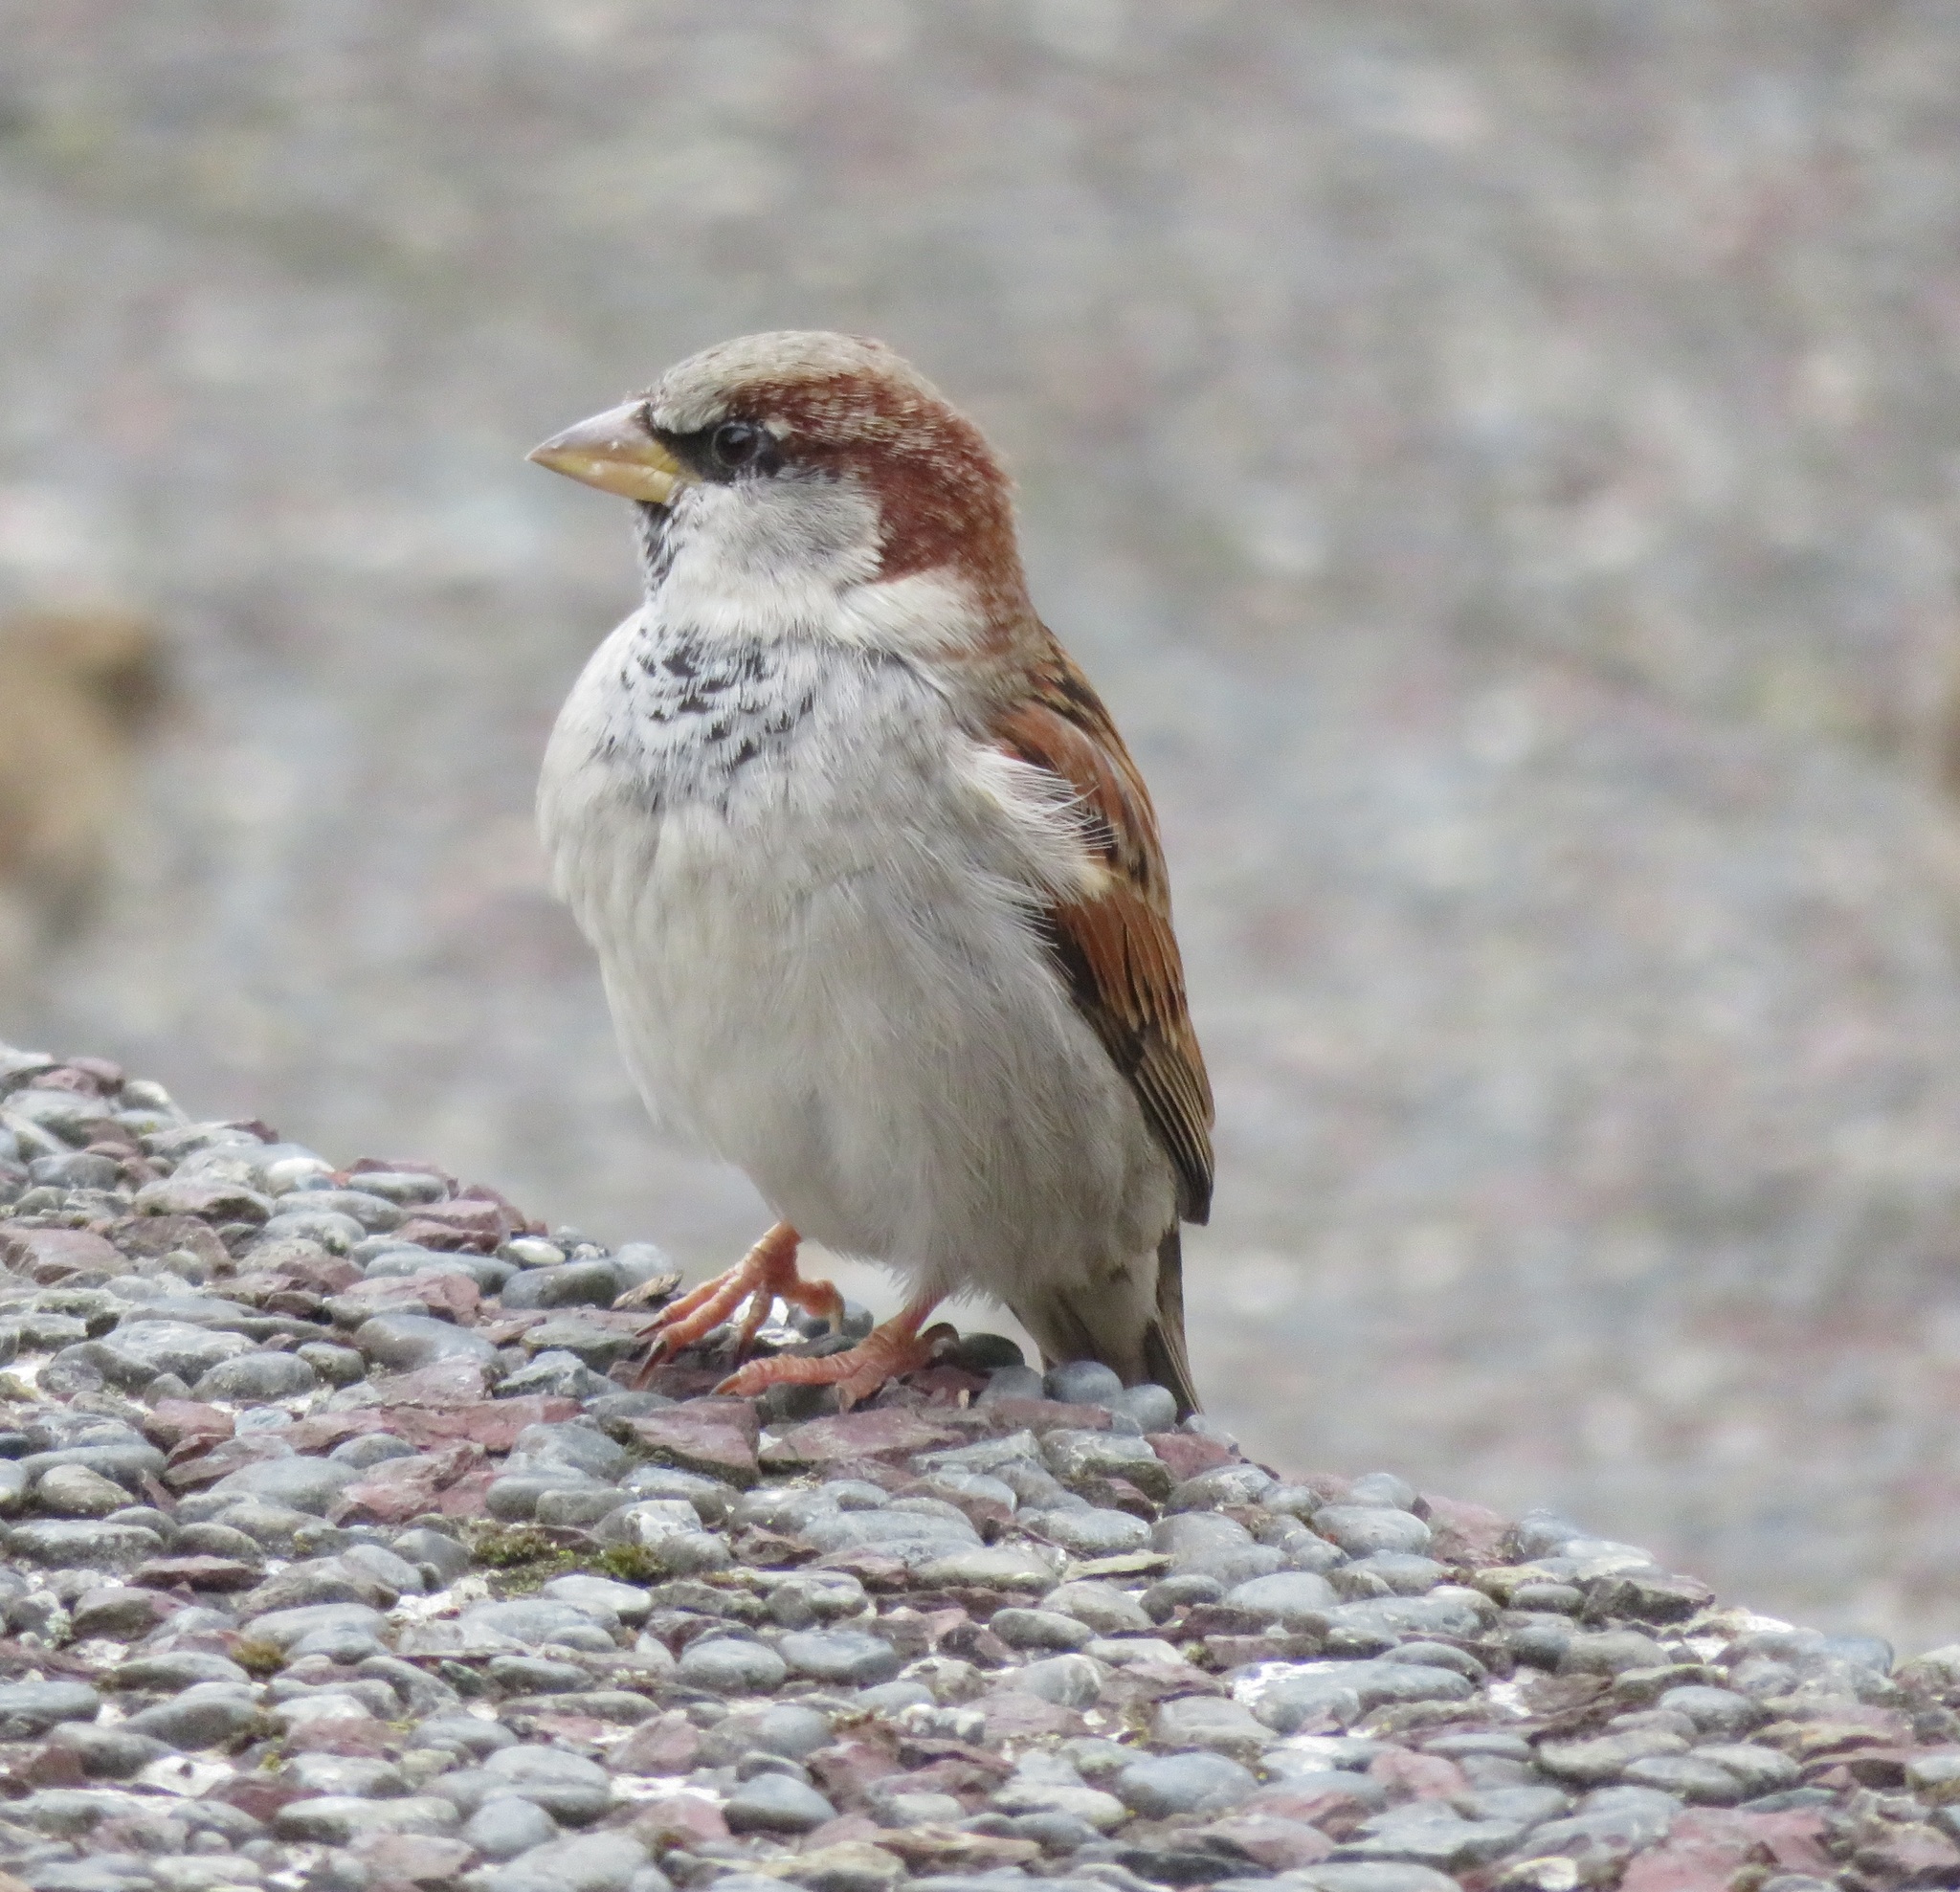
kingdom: Animalia
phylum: Chordata
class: Aves
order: Passeriformes
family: Passeridae
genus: Passer
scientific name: Passer domesticus
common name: House sparrow
